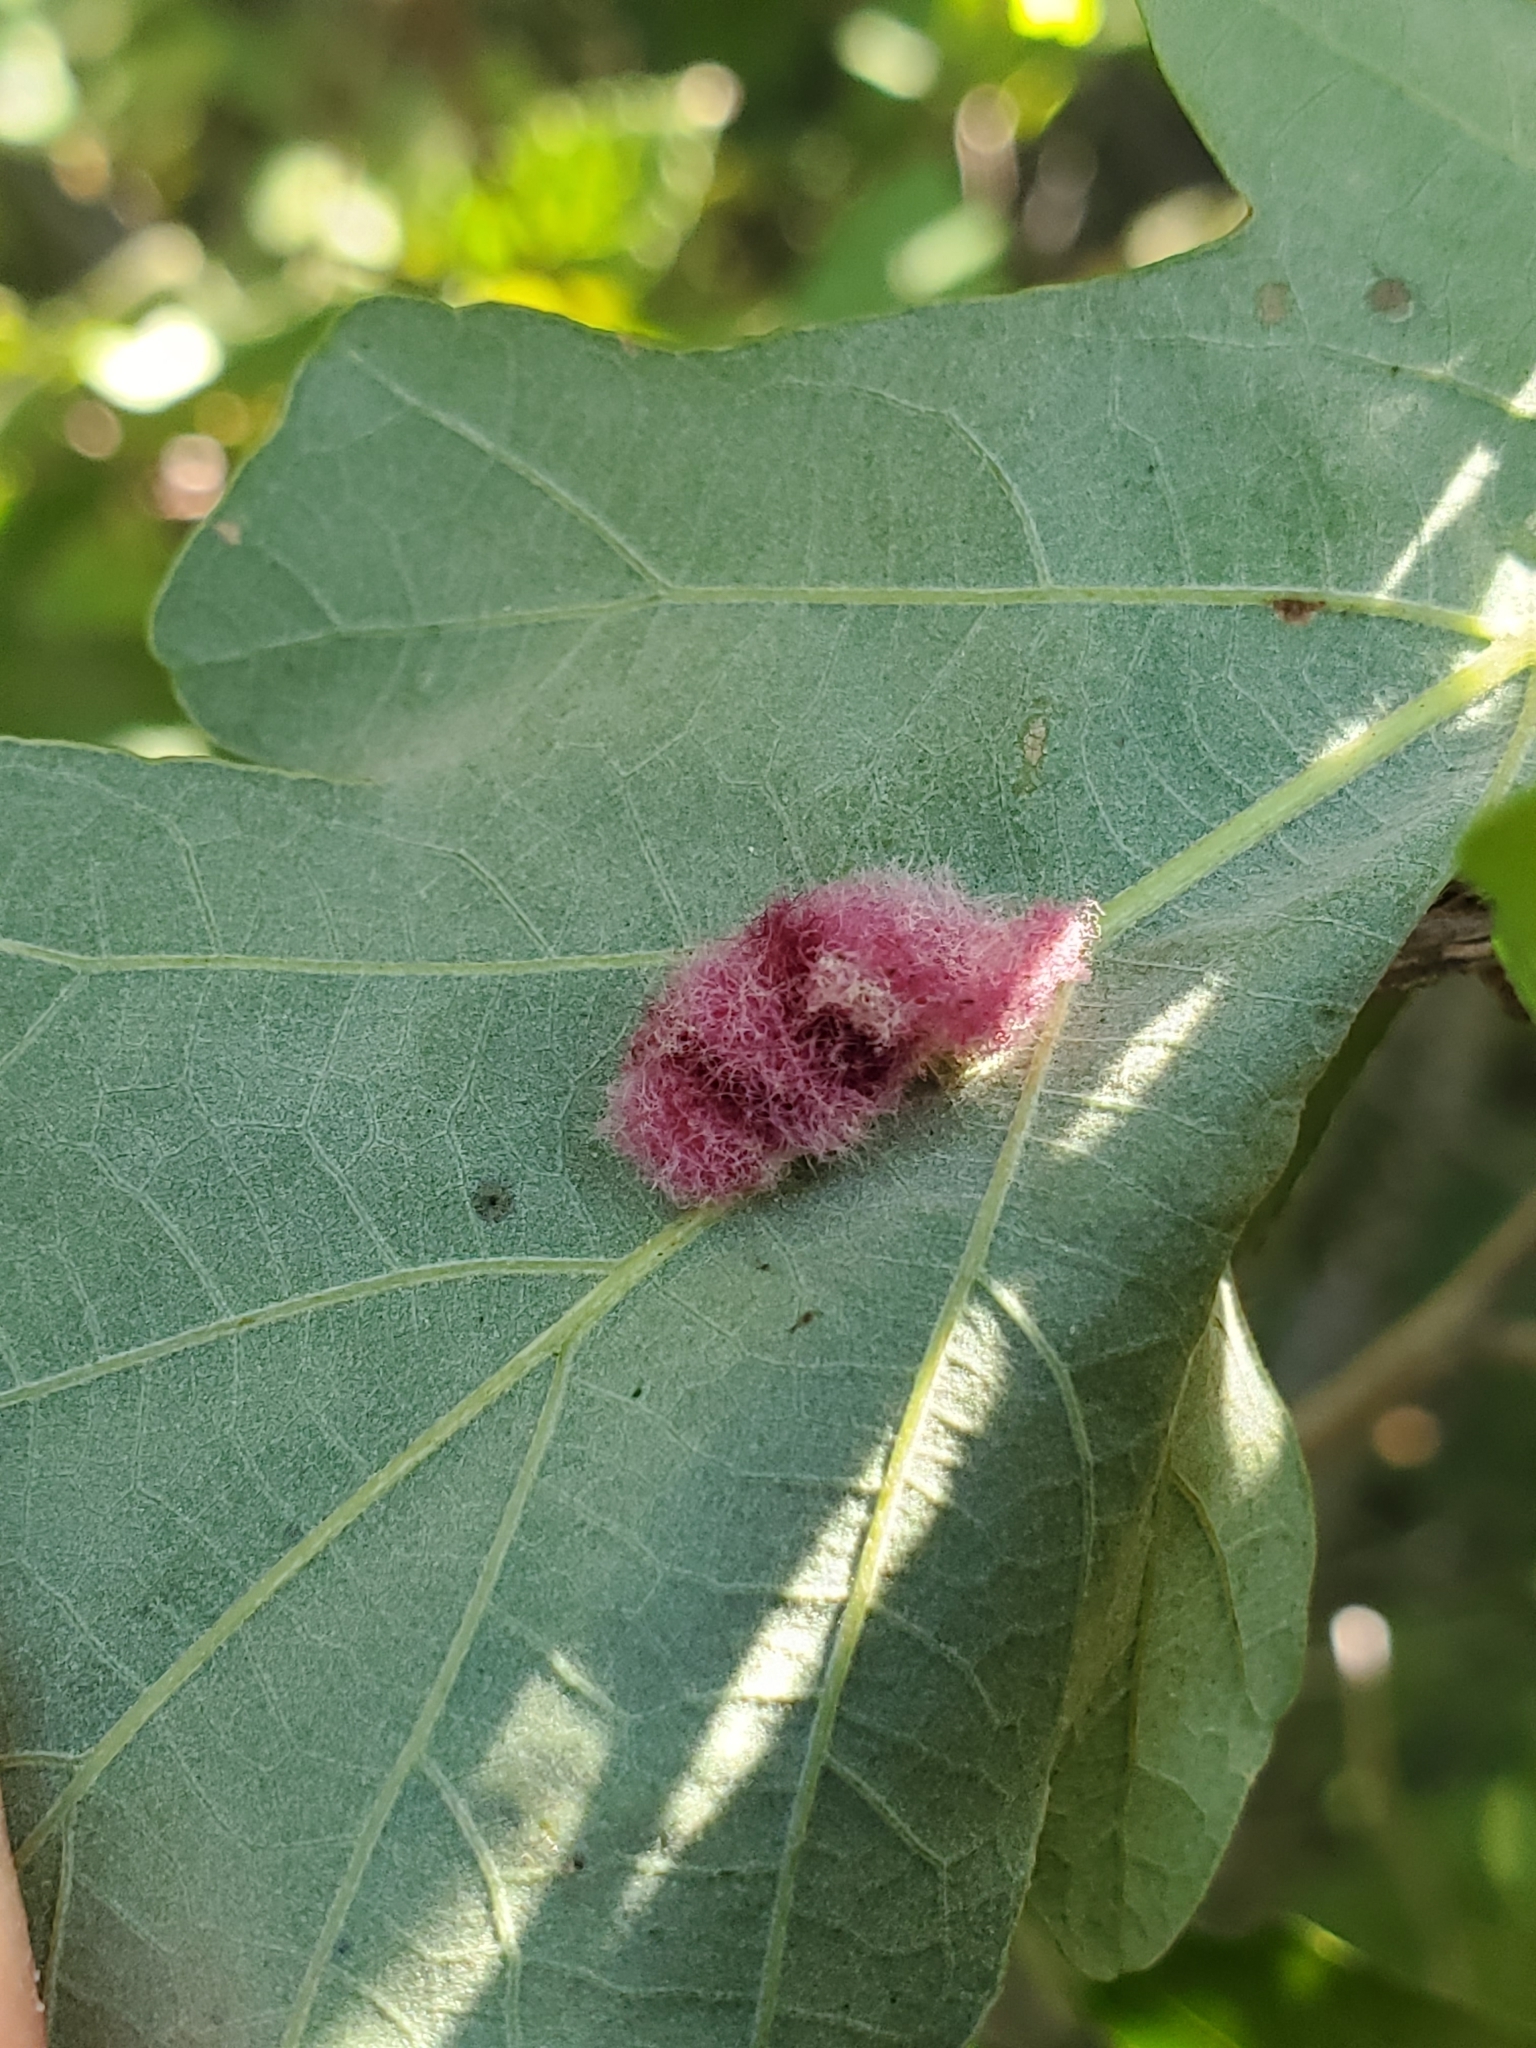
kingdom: Animalia
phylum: Arthropoda
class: Insecta
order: Hymenoptera
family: Cynipidae
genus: Andricus
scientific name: Andricus Druon ignotum
